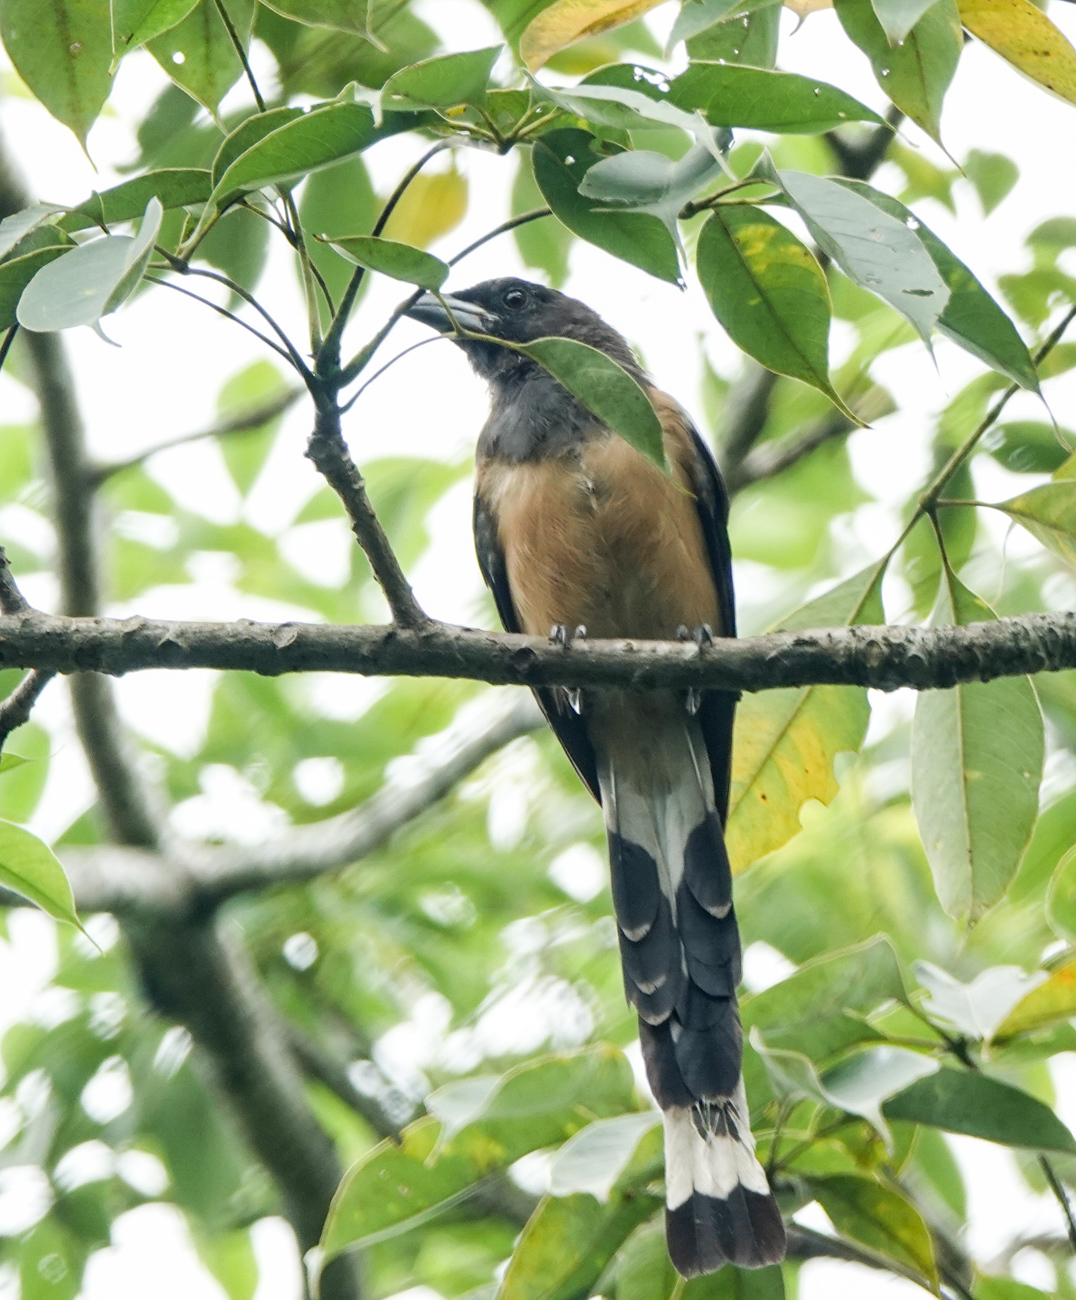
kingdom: Animalia
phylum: Chordata
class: Aves
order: Passeriformes
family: Corvidae
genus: Dendrocitta
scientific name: Dendrocitta vagabunda
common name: Rufous treepie
